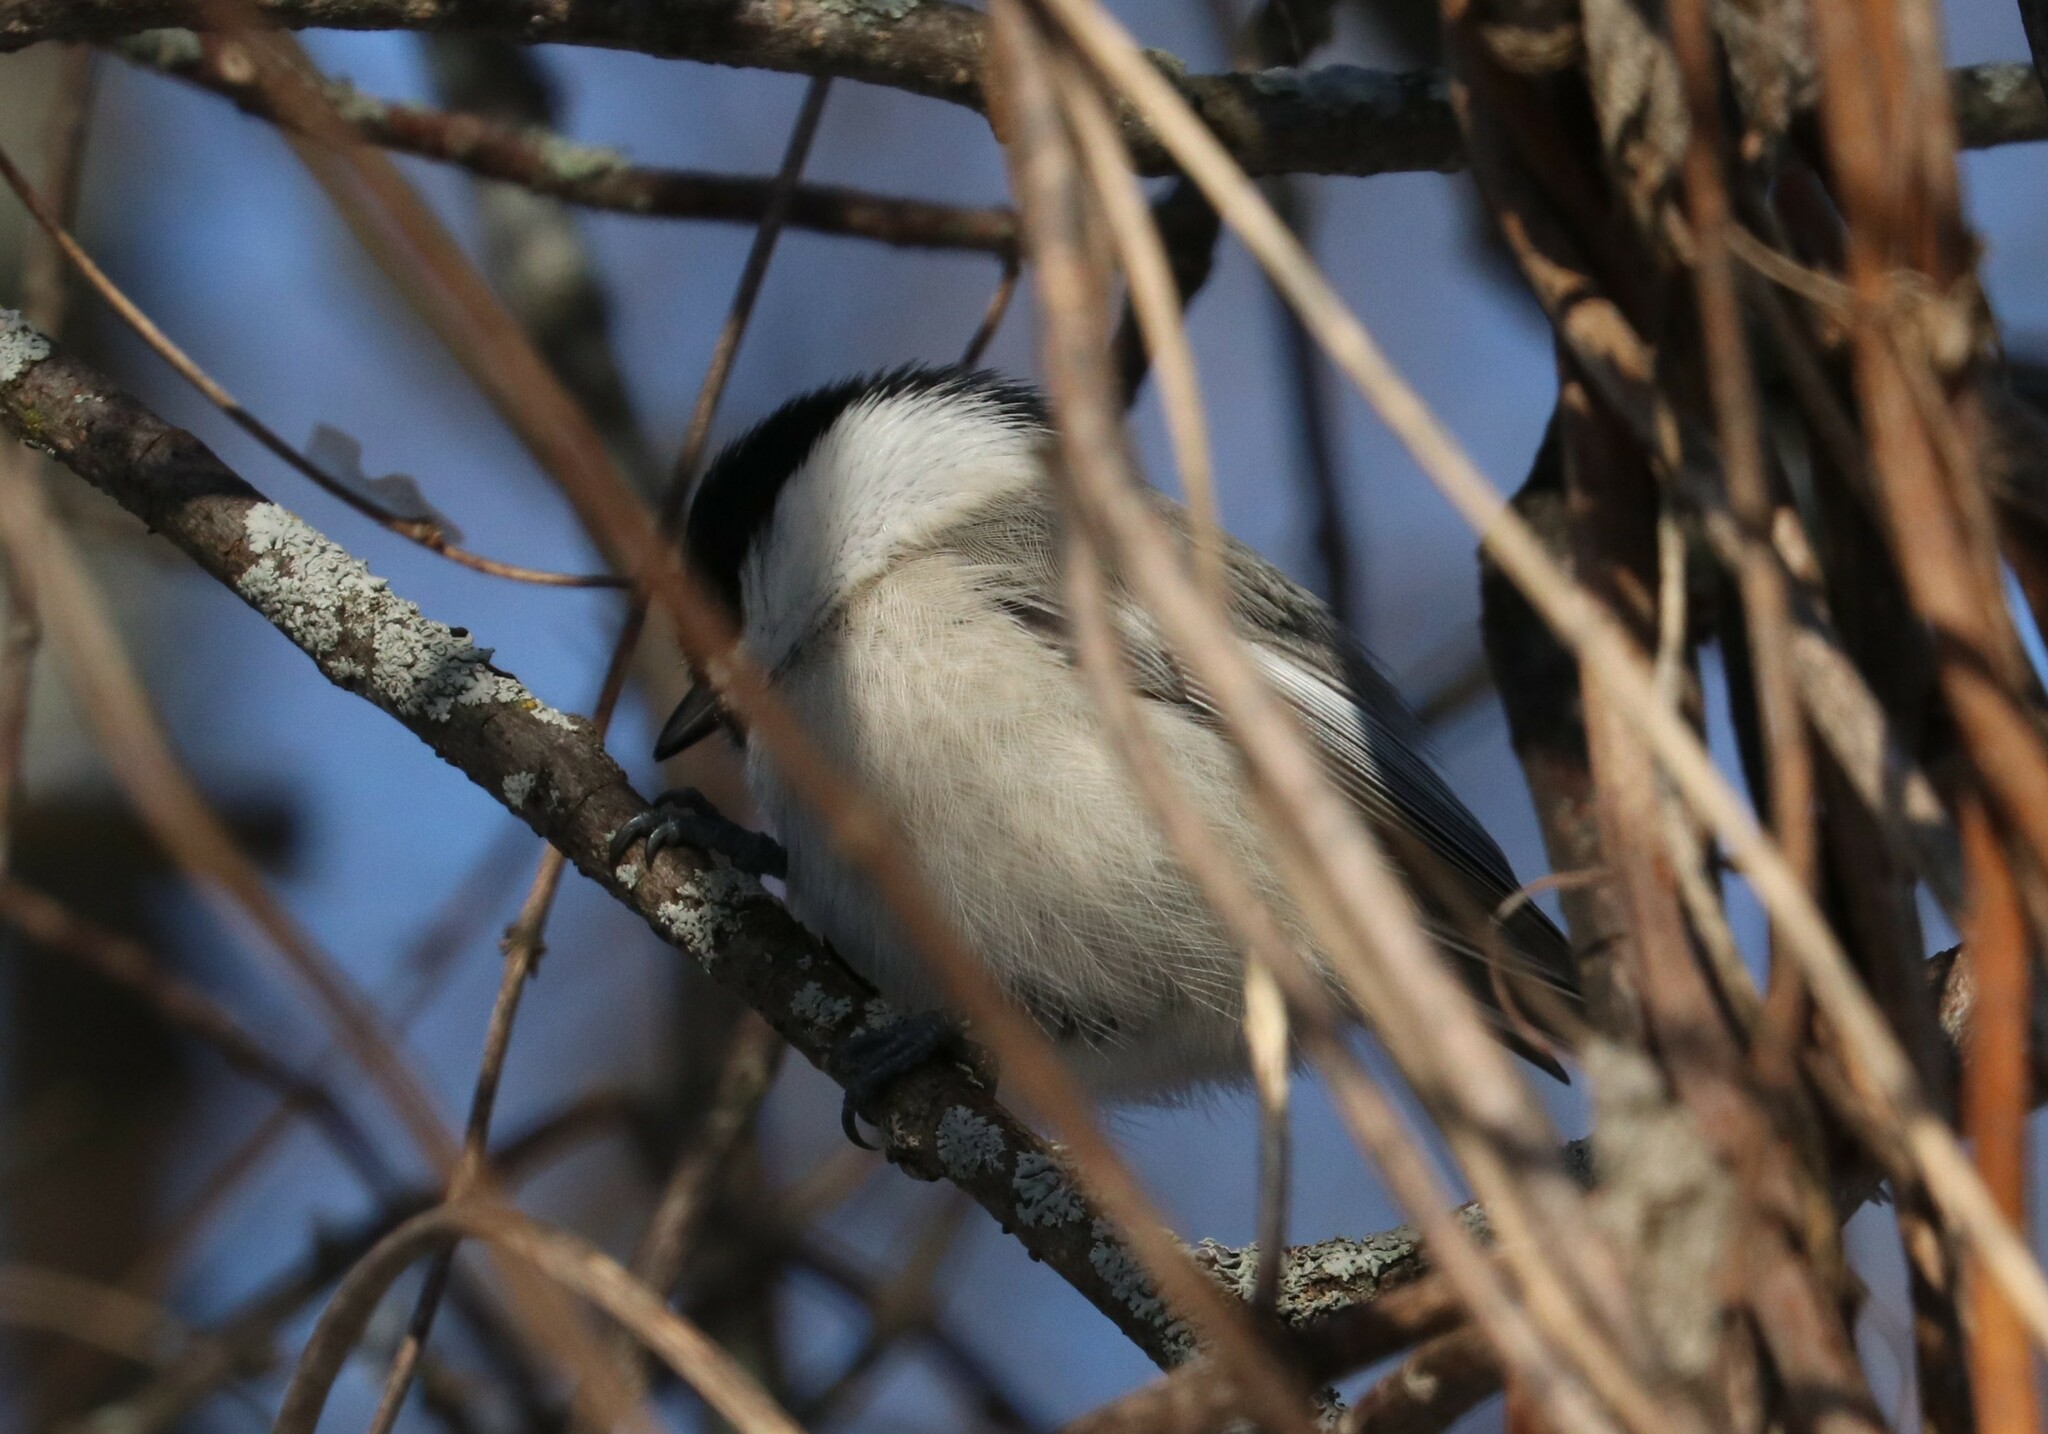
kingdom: Animalia
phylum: Chordata
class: Aves
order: Passeriformes
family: Paridae
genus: Poecile
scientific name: Poecile montanus
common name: Willow tit
